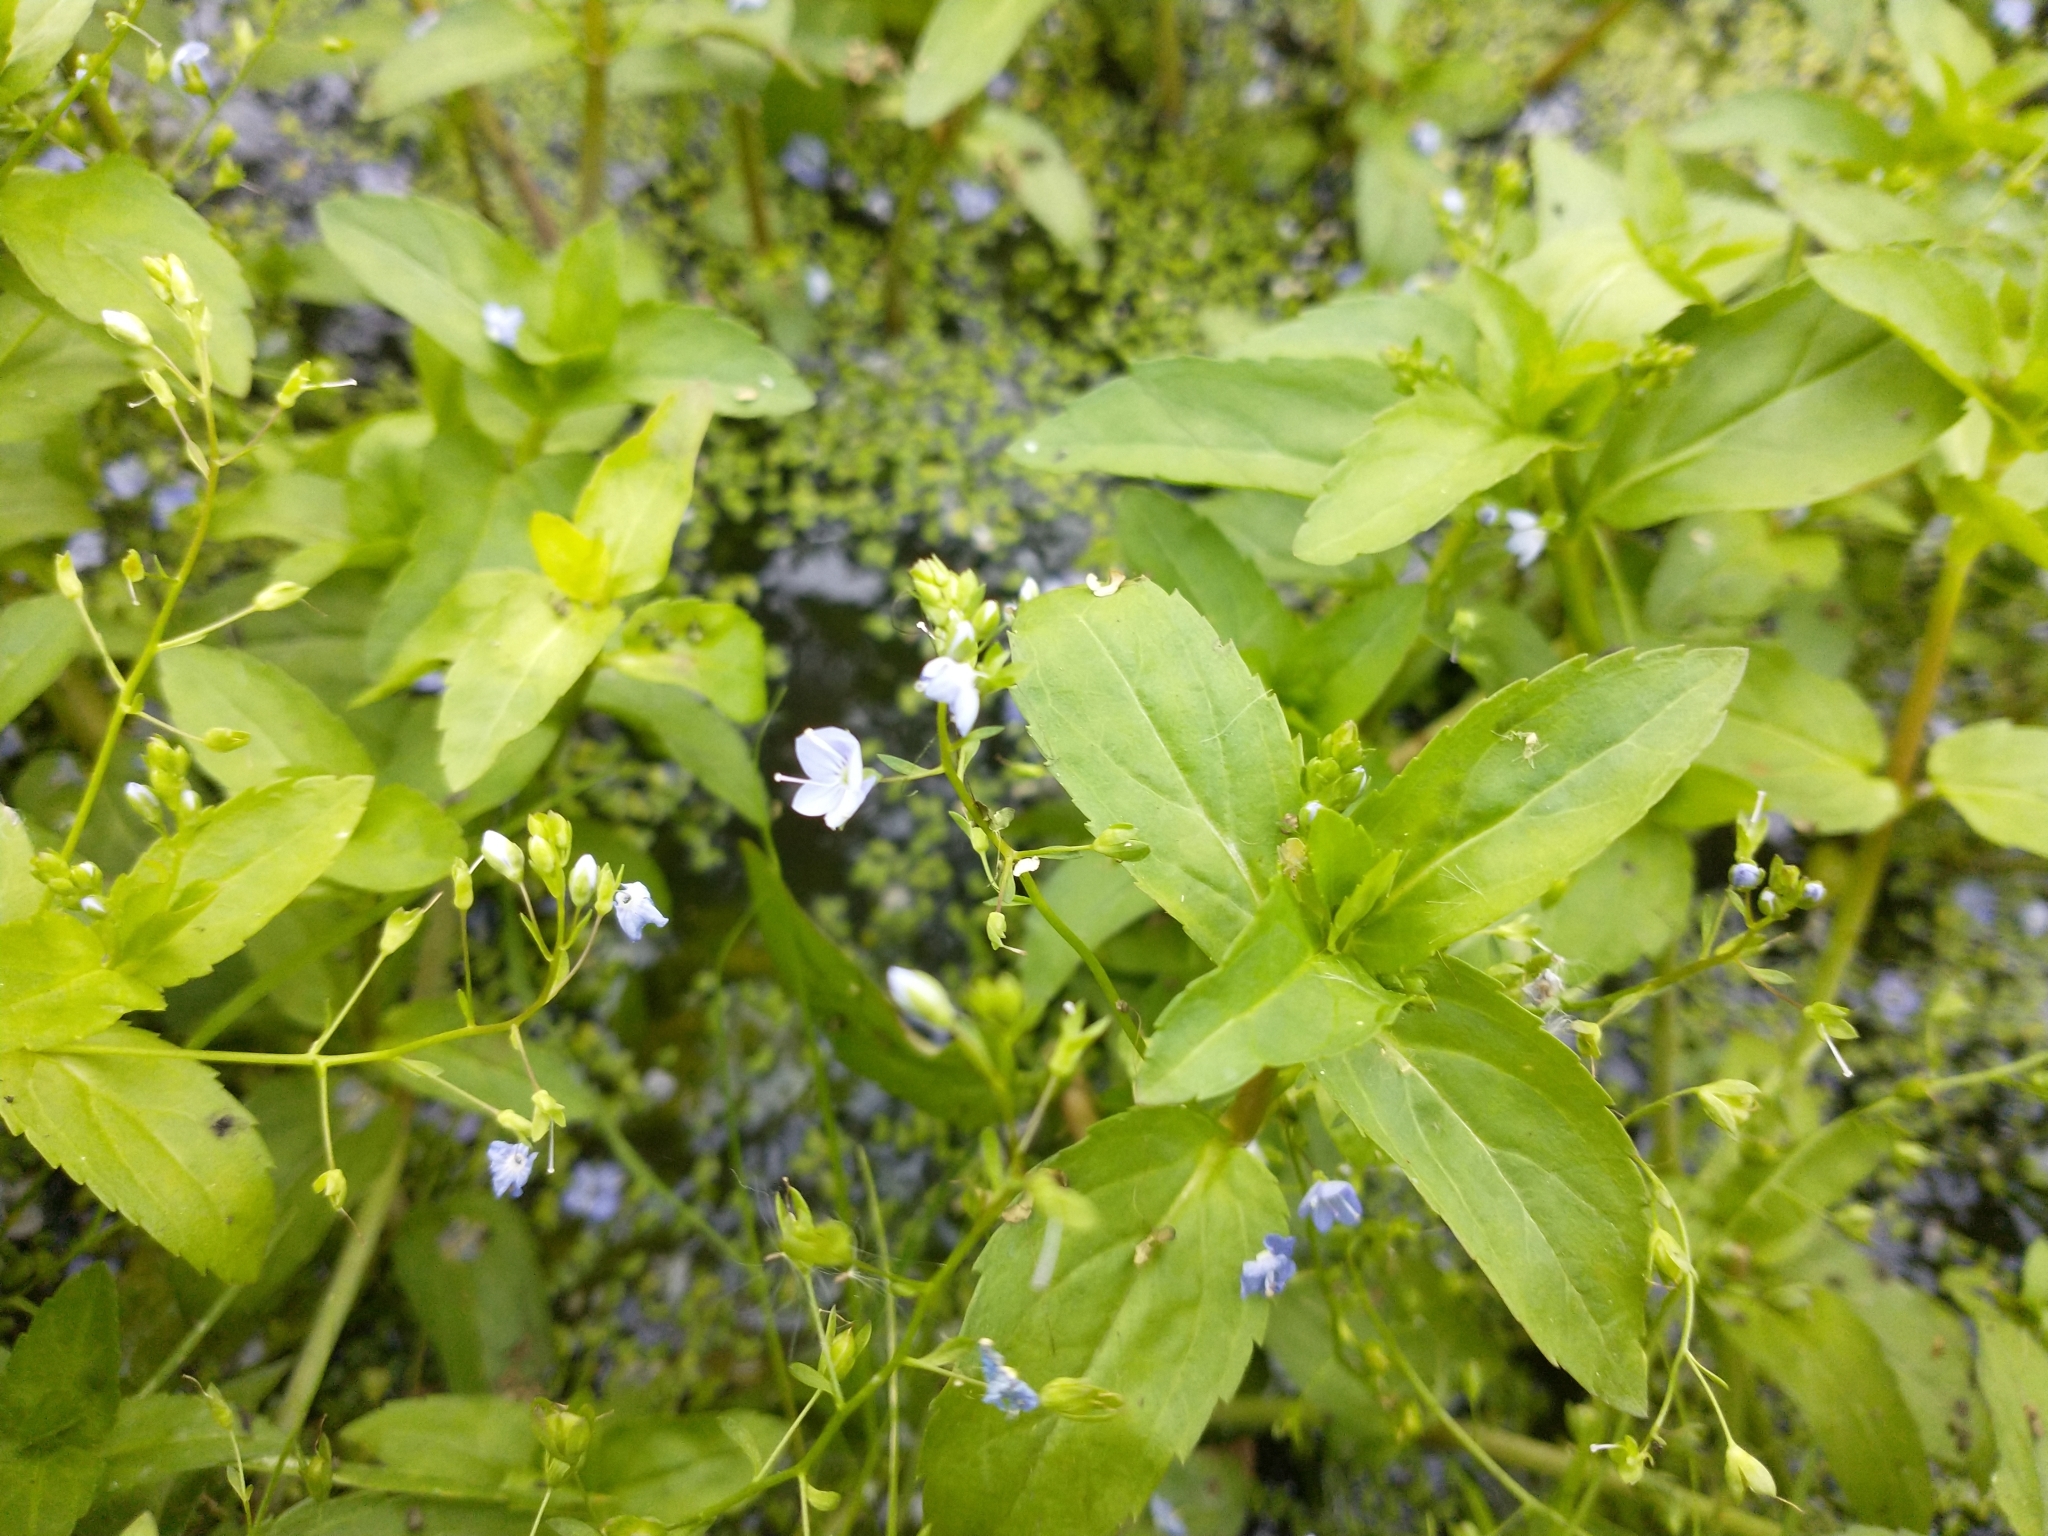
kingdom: Plantae
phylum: Tracheophyta
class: Magnoliopsida
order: Lamiales
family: Plantaginaceae
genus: Veronica
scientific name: Veronica americana
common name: American brooklime
